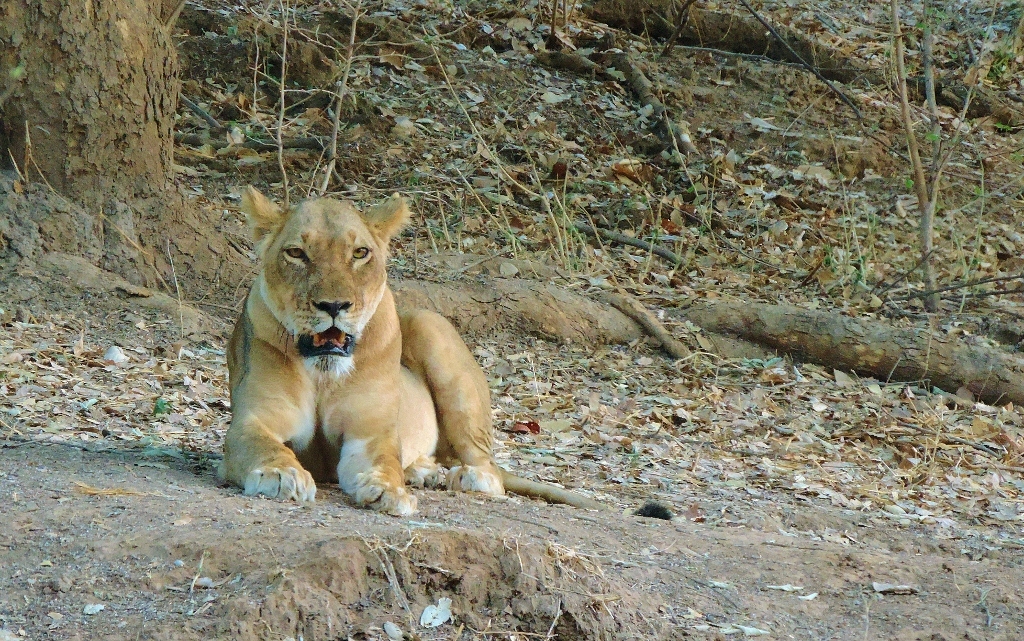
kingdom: Animalia
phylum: Chordata
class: Mammalia
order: Carnivora
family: Felidae
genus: Panthera
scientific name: Panthera leo
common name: Lion
